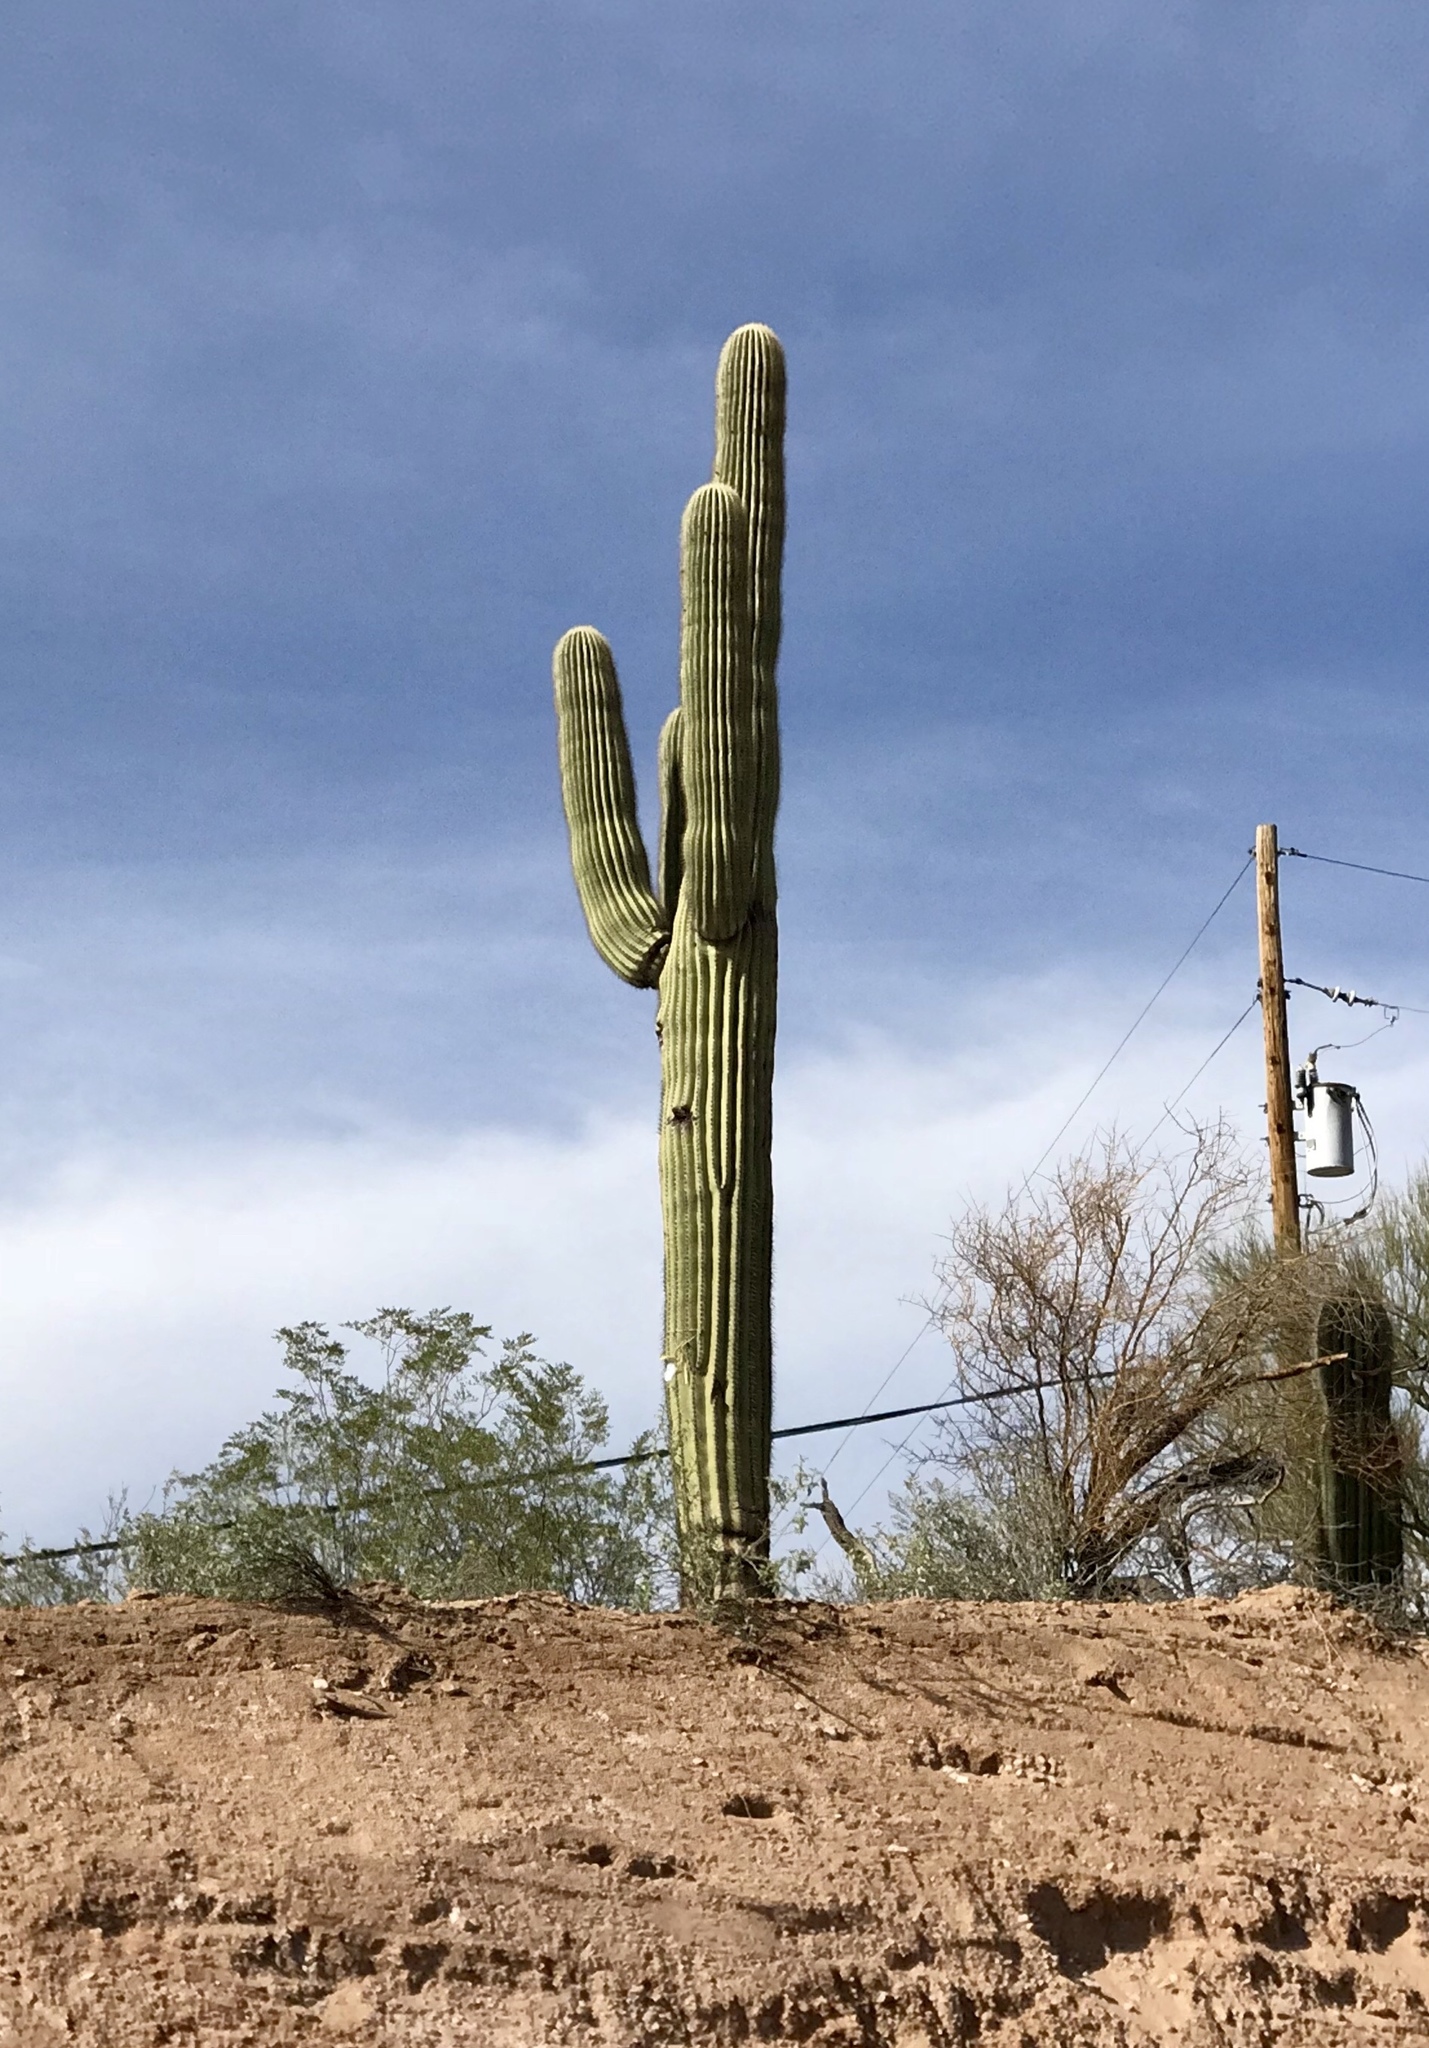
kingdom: Plantae
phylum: Tracheophyta
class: Magnoliopsida
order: Caryophyllales
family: Cactaceae
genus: Carnegiea
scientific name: Carnegiea gigantea
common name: Saguaro
